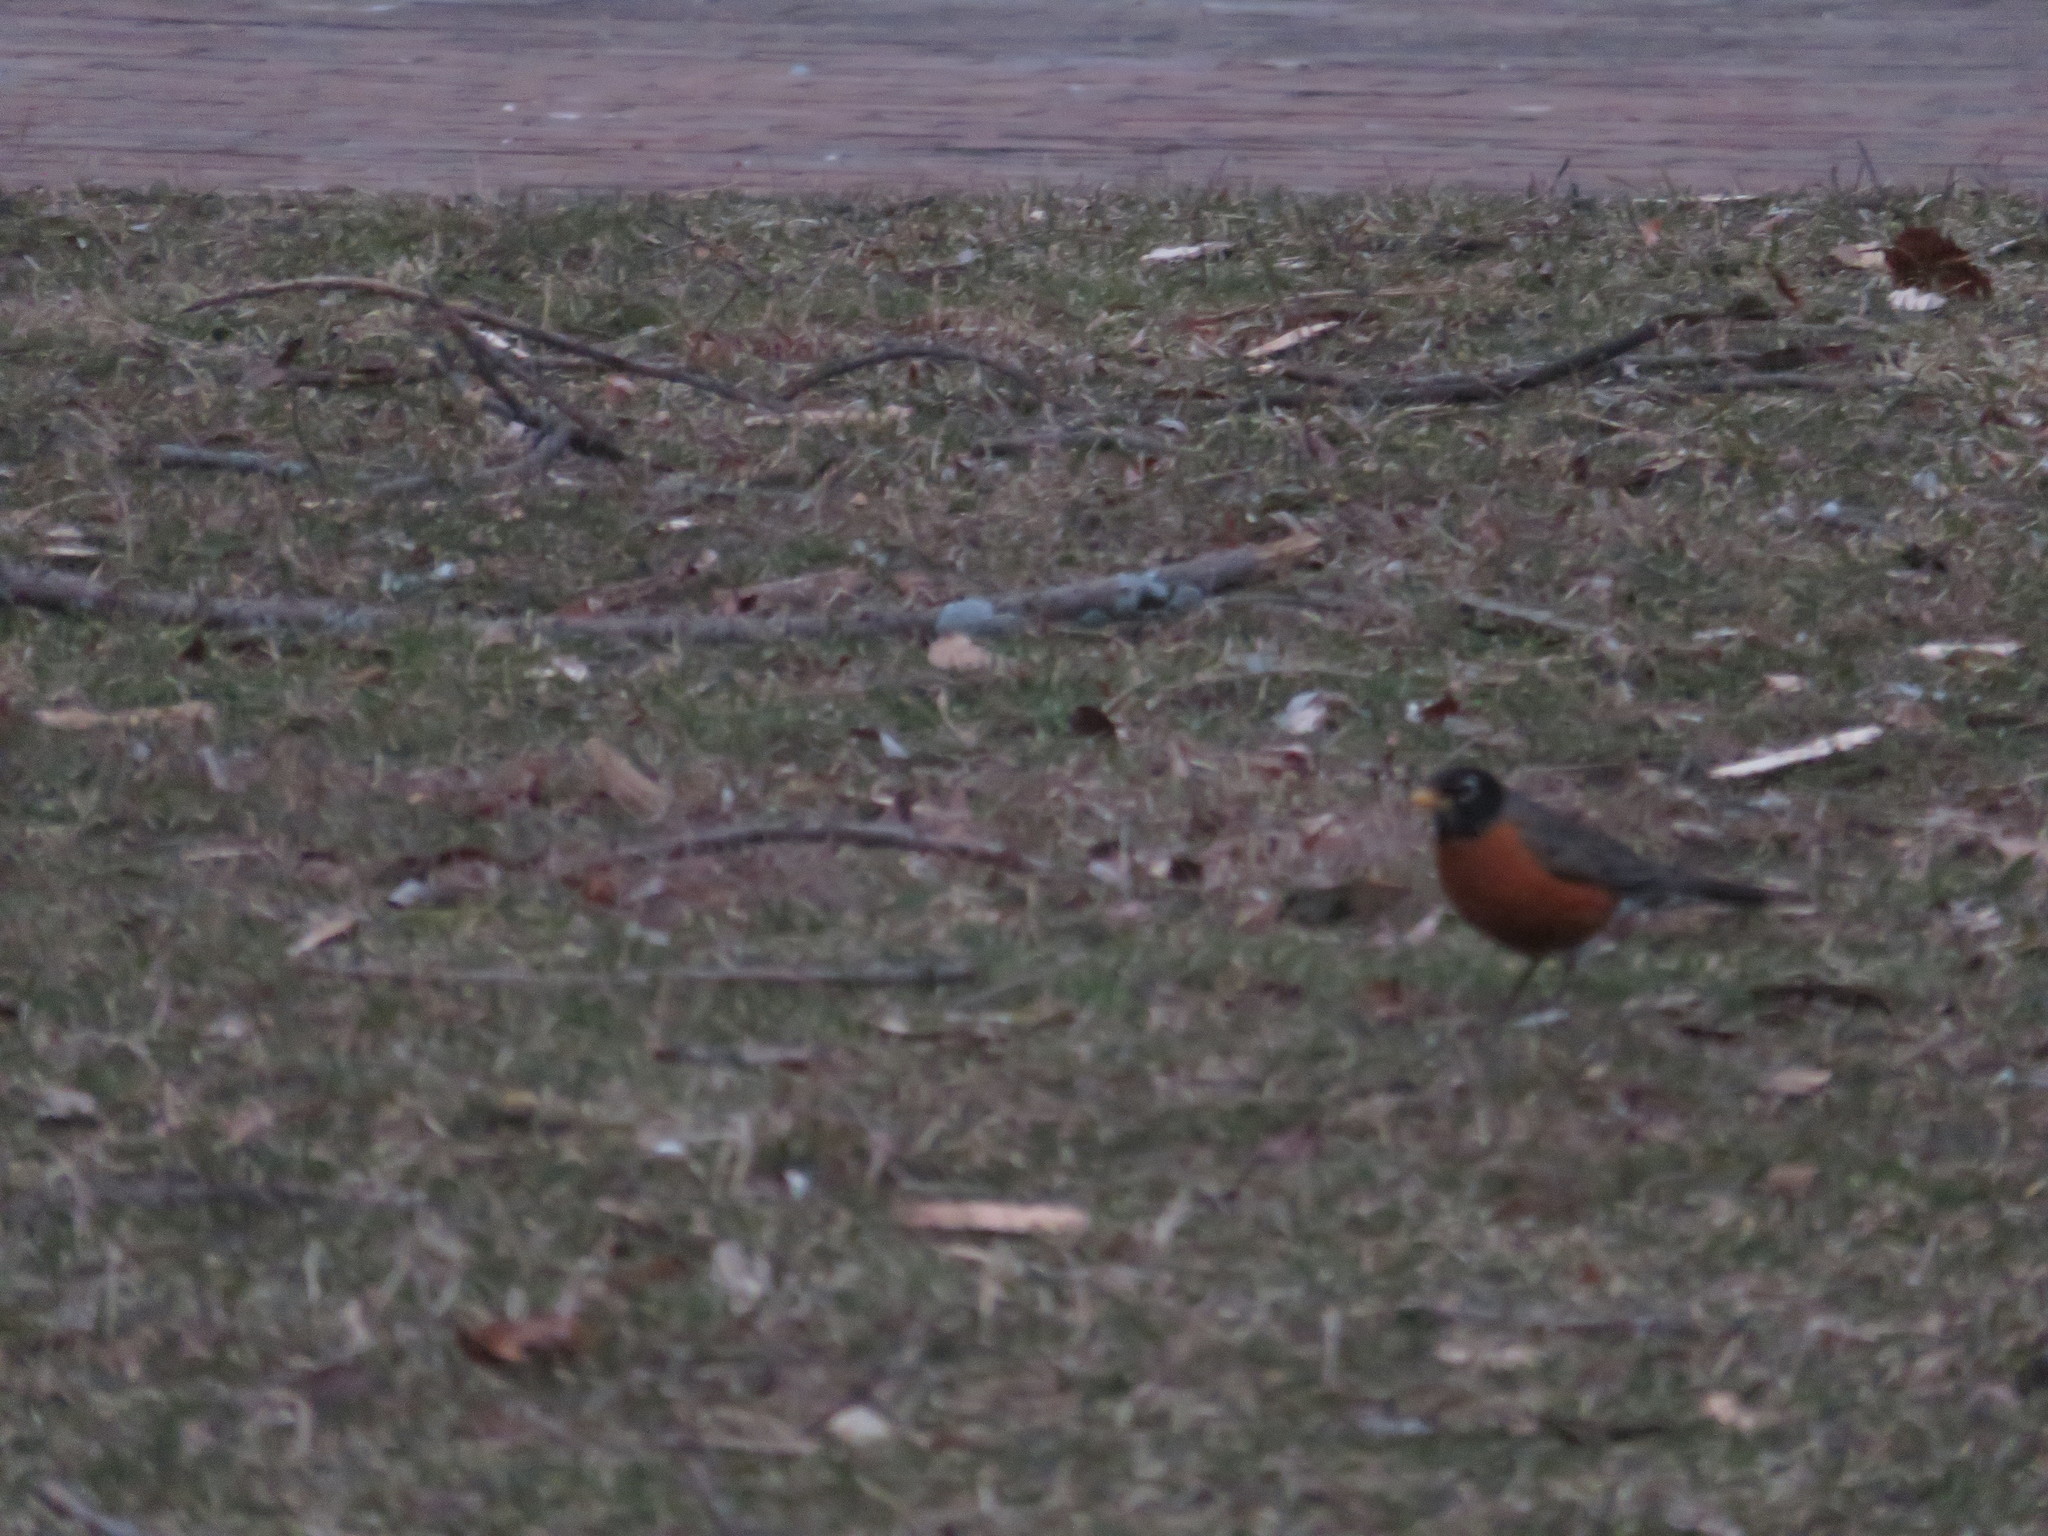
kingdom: Animalia
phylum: Chordata
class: Aves
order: Passeriformes
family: Turdidae
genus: Turdus
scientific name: Turdus migratorius
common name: American robin
